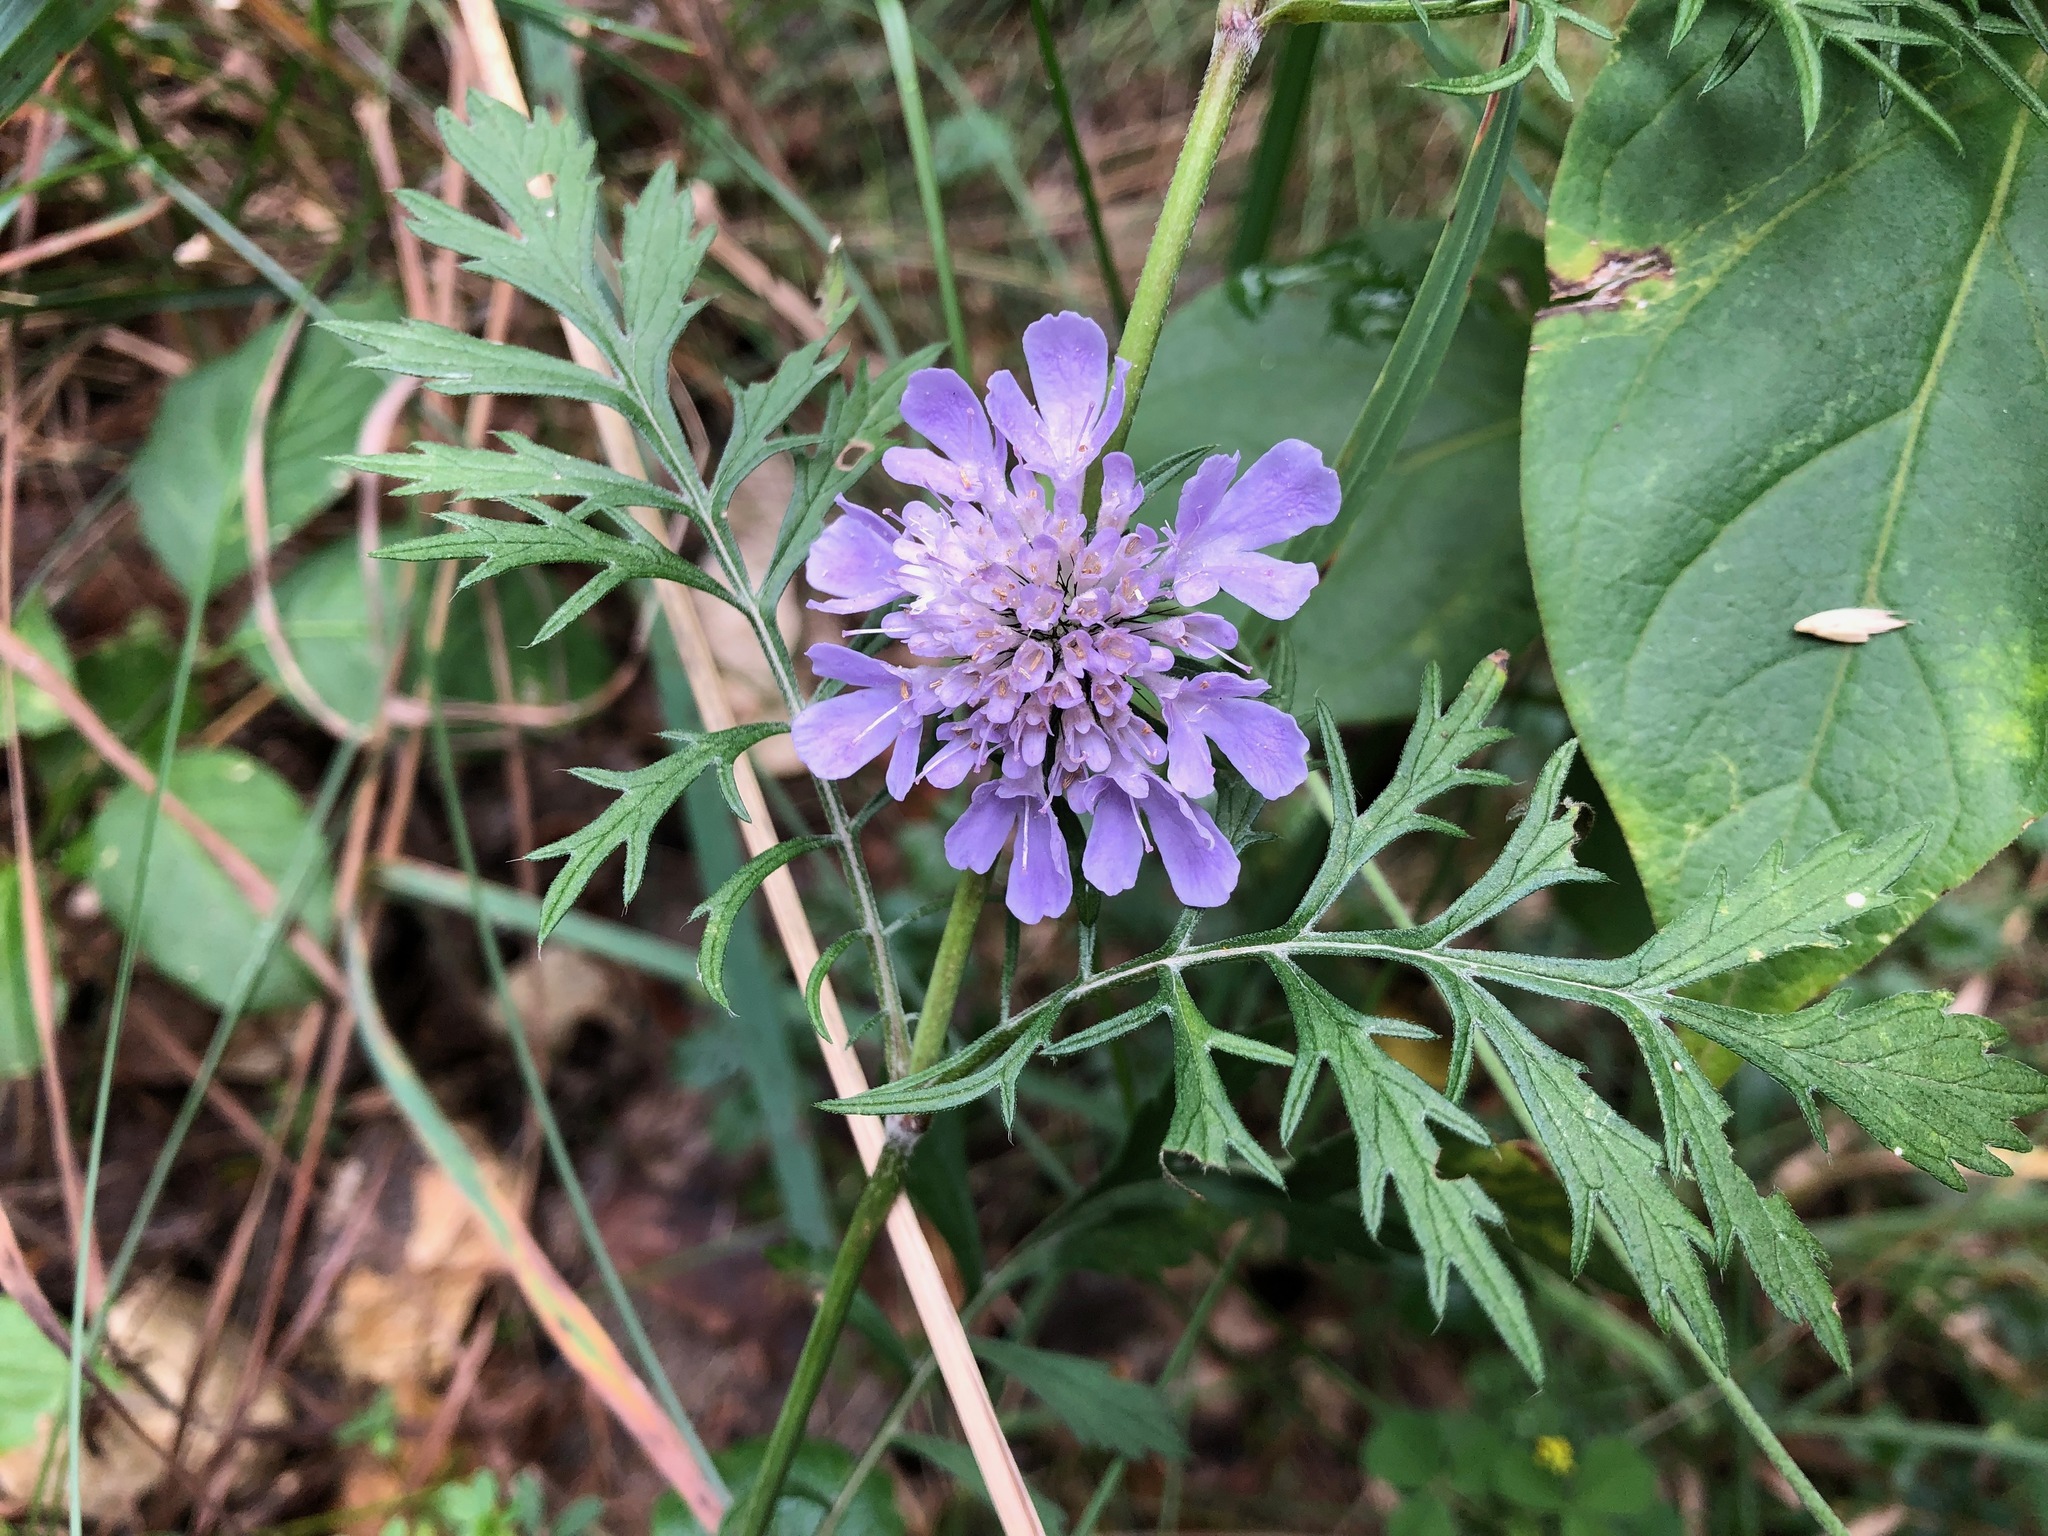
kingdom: Plantae
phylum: Tracheophyta
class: Magnoliopsida
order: Dipsacales
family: Caprifoliaceae
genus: Scabiosa
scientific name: Scabiosa columbaria
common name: Small scabious
